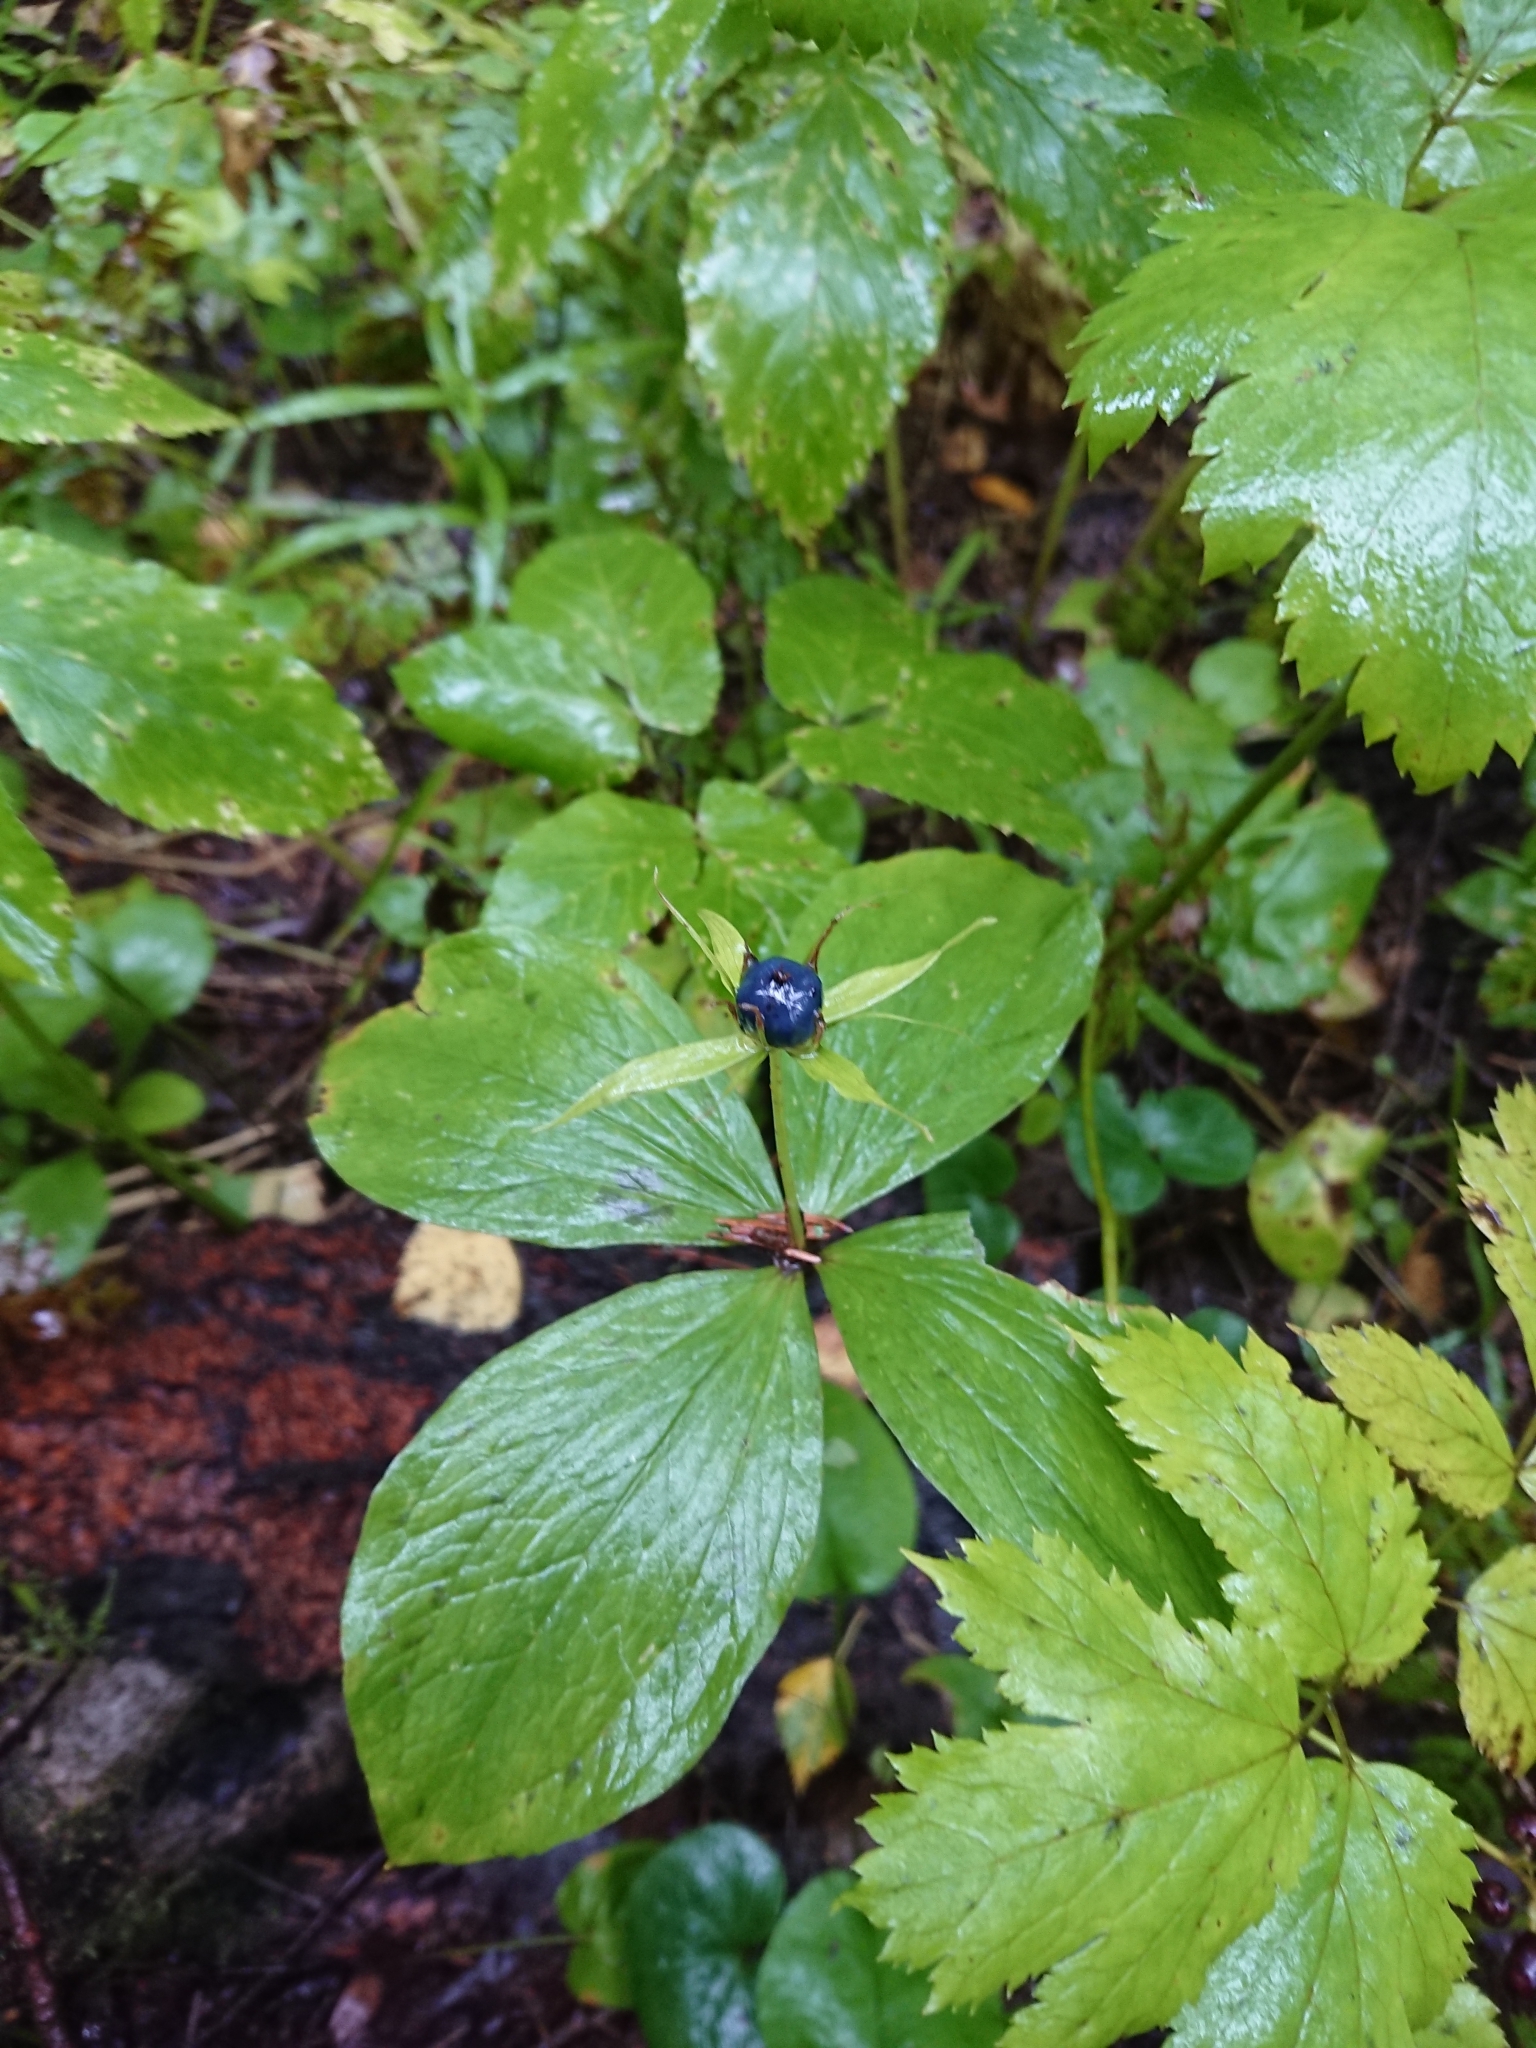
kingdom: Plantae
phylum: Tracheophyta
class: Liliopsida
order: Liliales
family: Melanthiaceae
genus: Paris
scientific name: Paris quadrifolia
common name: Herb-paris
